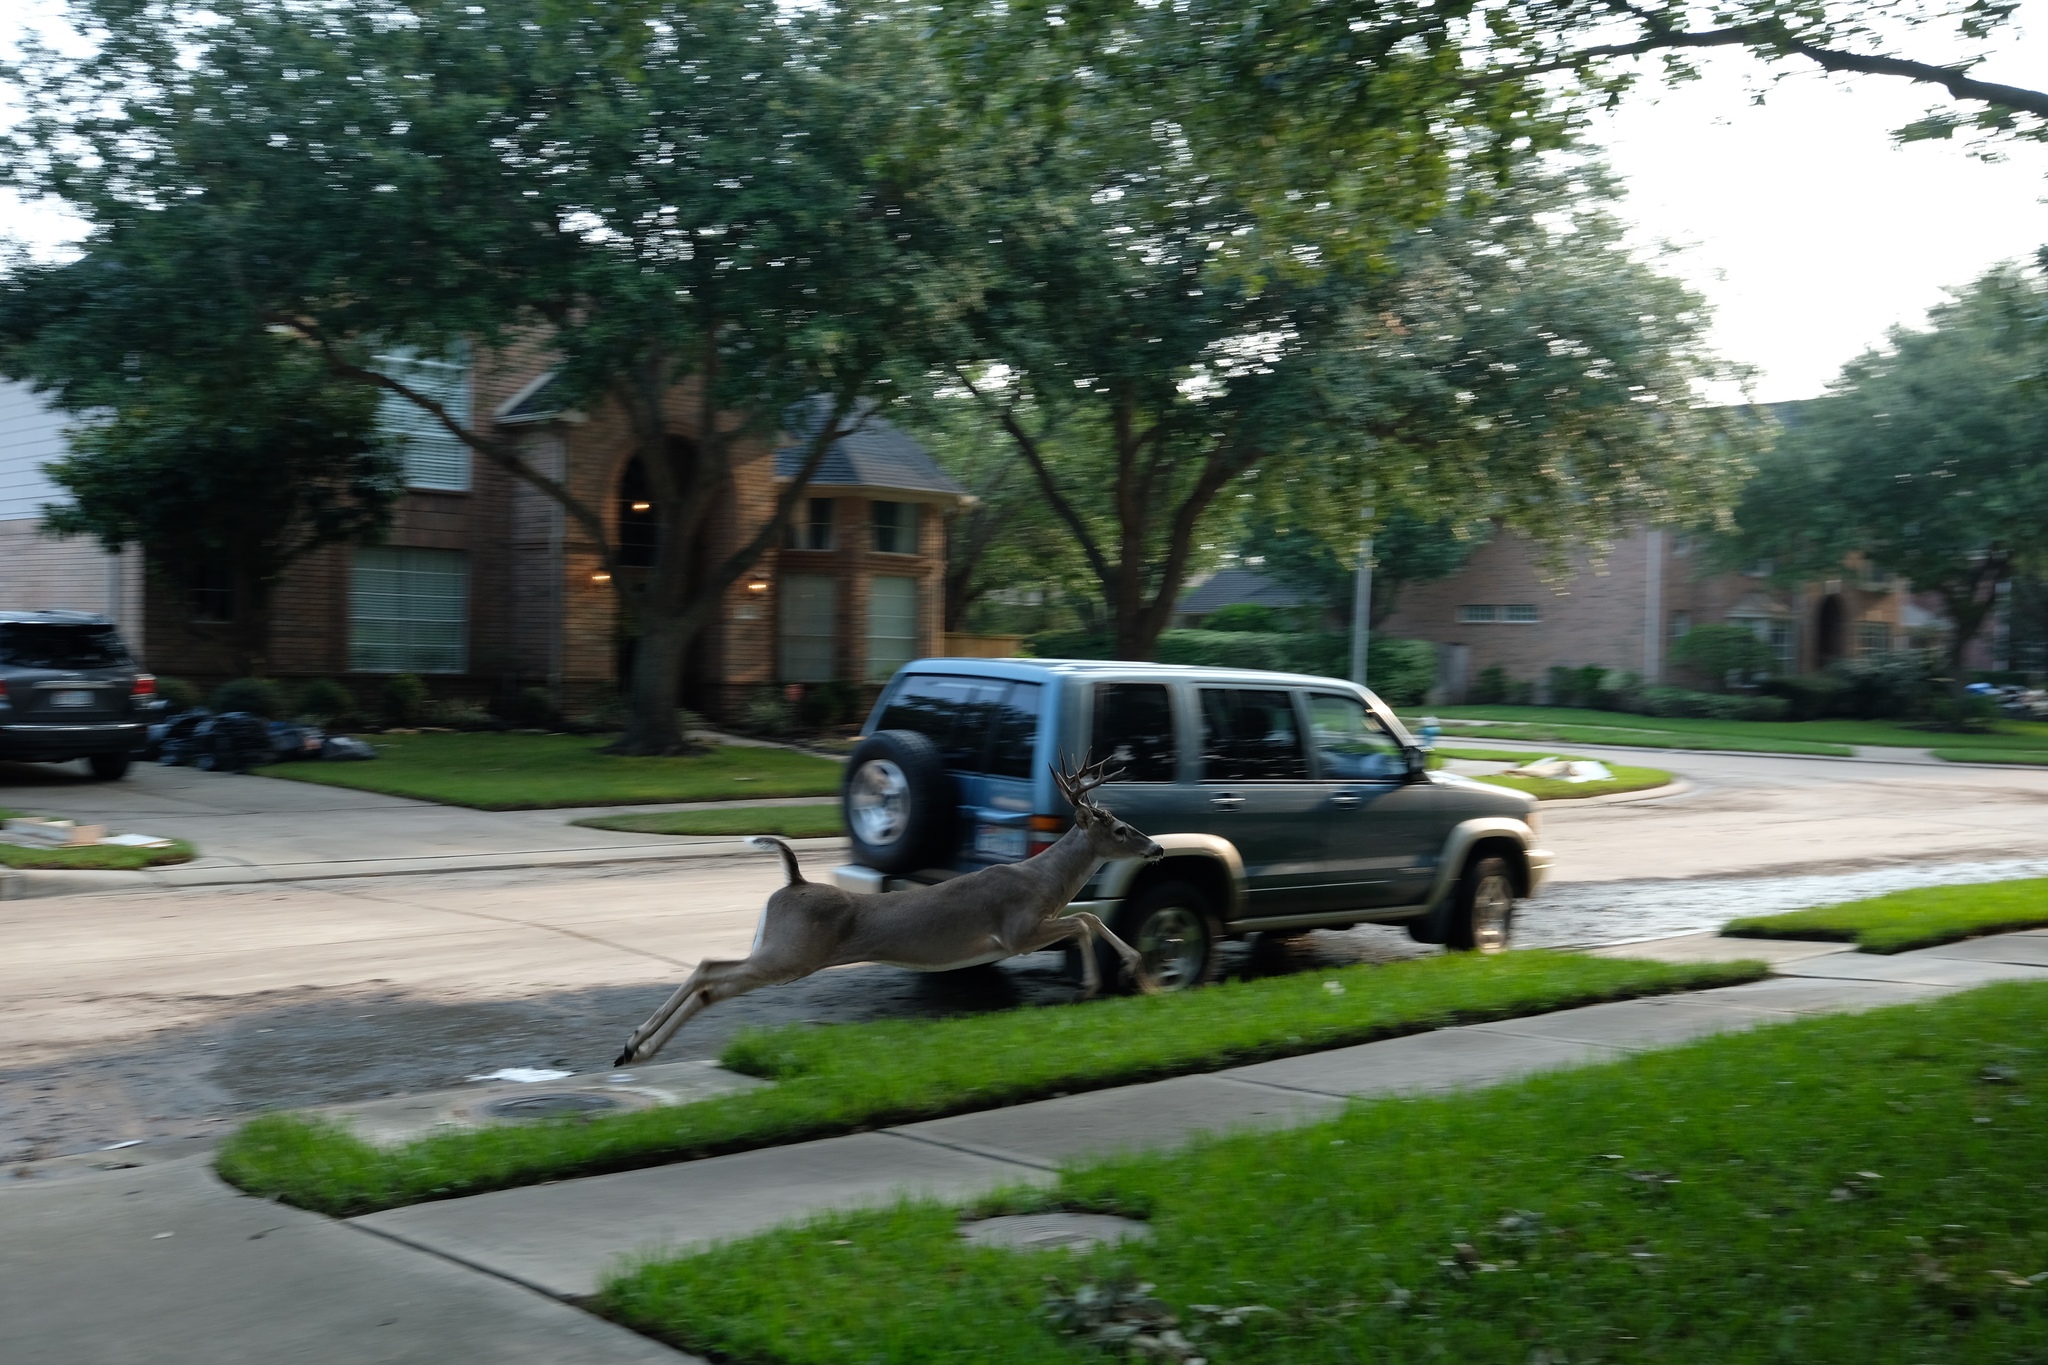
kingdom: Animalia
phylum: Chordata
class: Mammalia
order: Artiodactyla
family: Cervidae
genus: Odocoileus
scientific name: Odocoileus virginianus
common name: White-tailed deer
